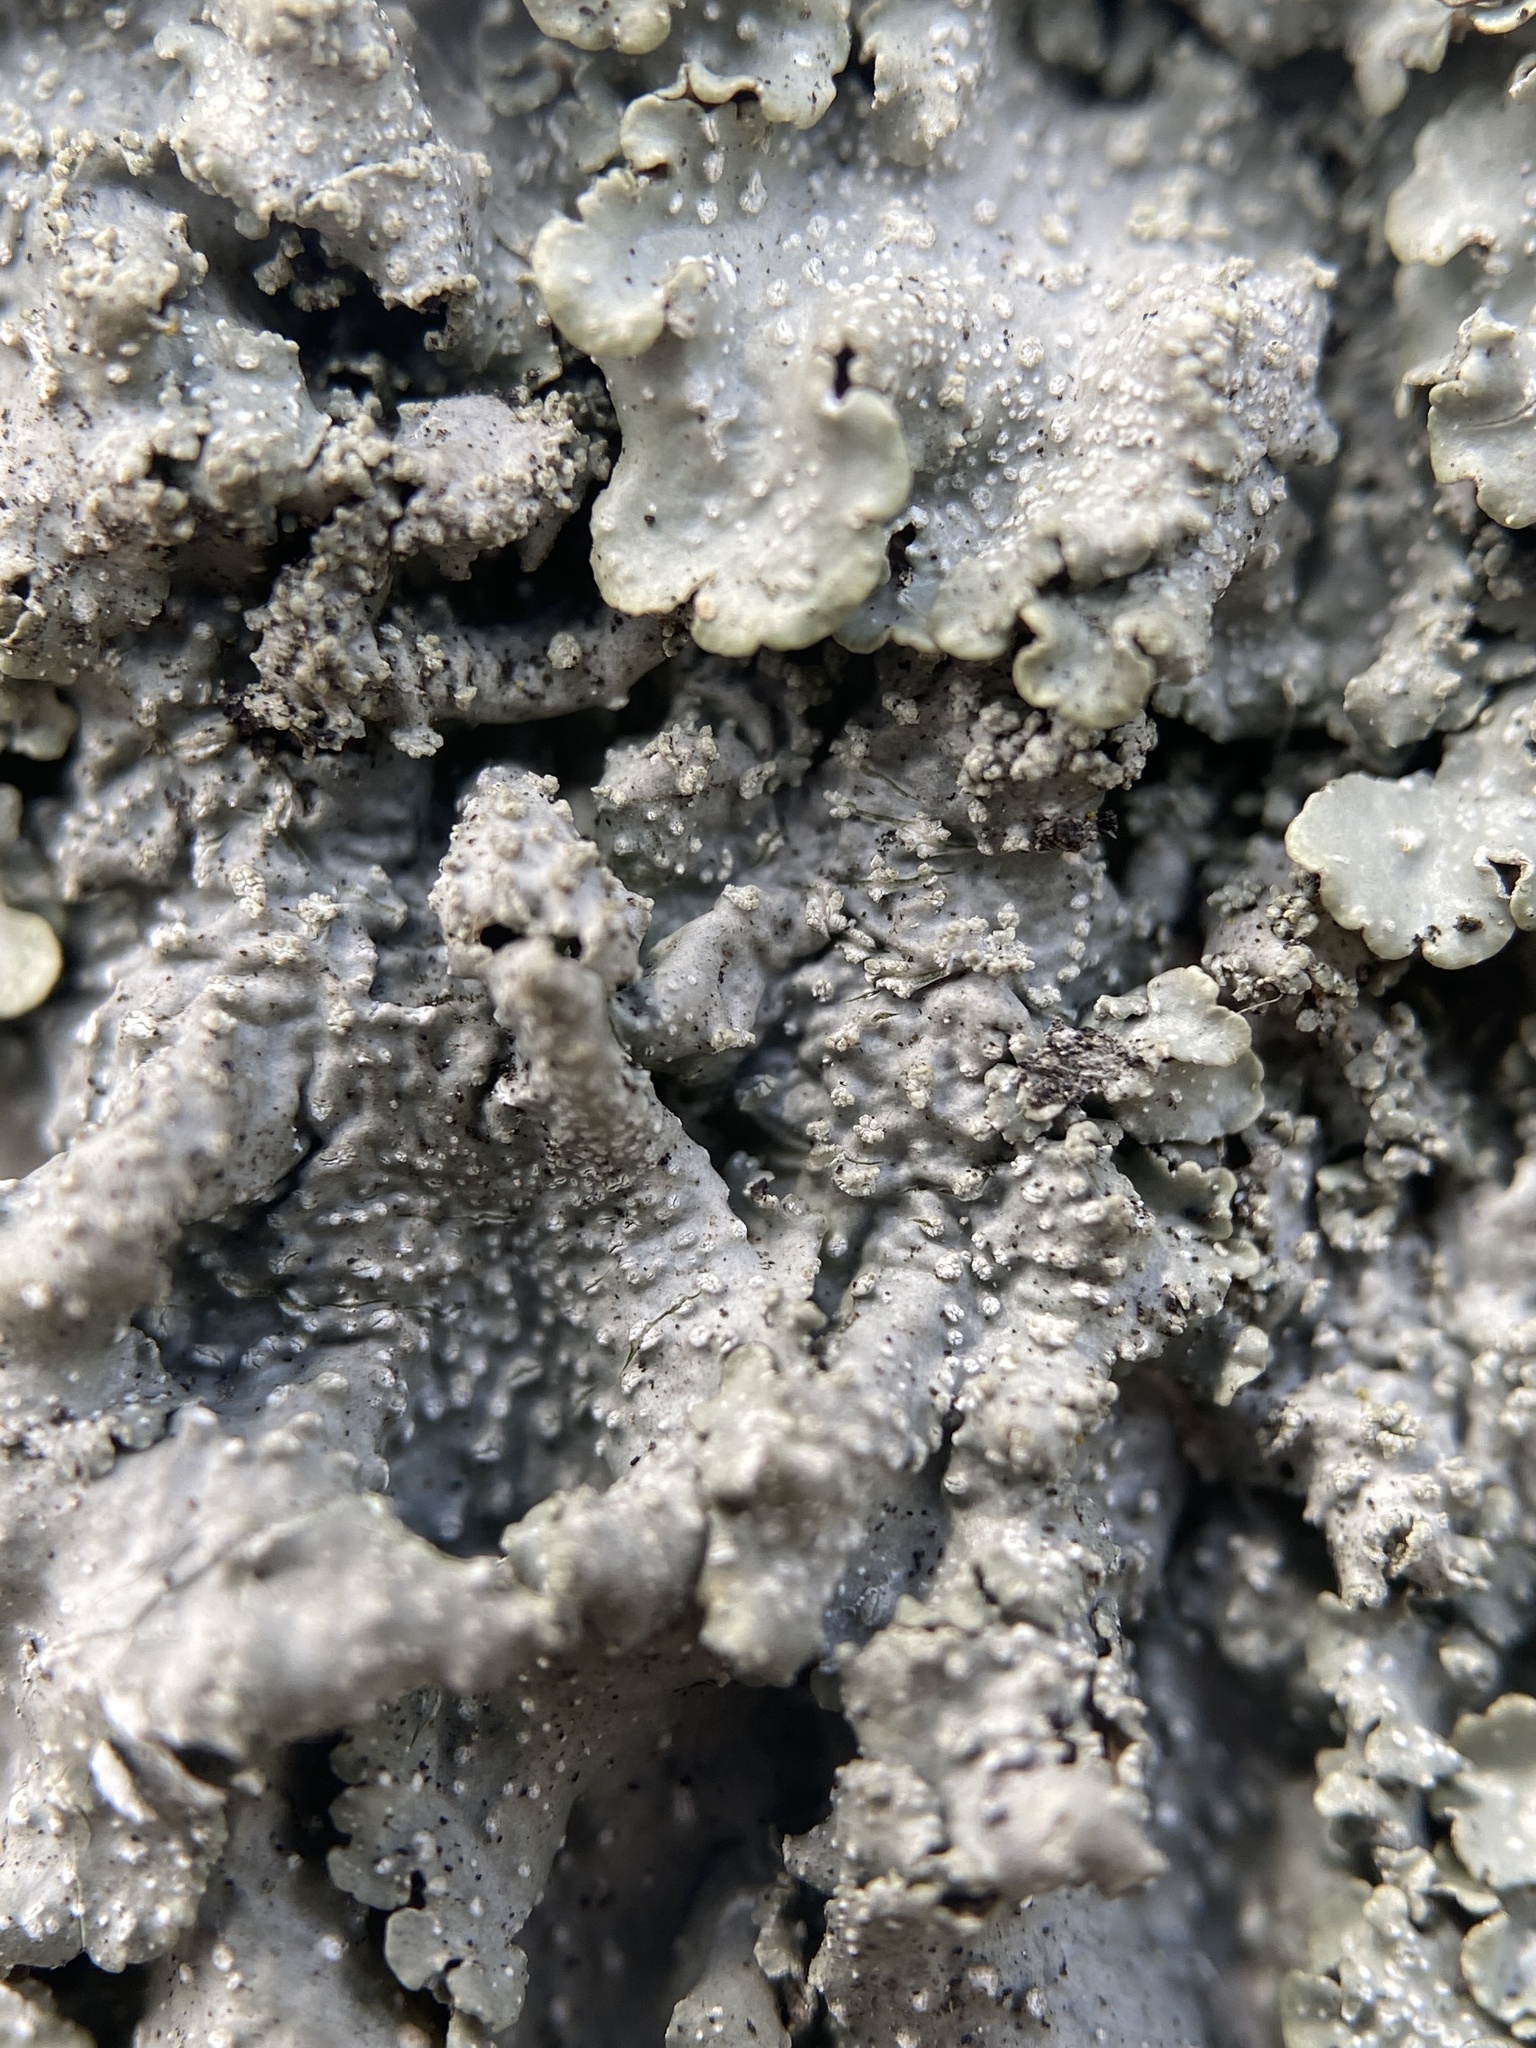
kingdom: Fungi
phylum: Ascomycota
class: Lecanoromycetes
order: Lecanorales
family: Parmeliaceae
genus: Punctelia
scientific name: Punctelia missouriensis
